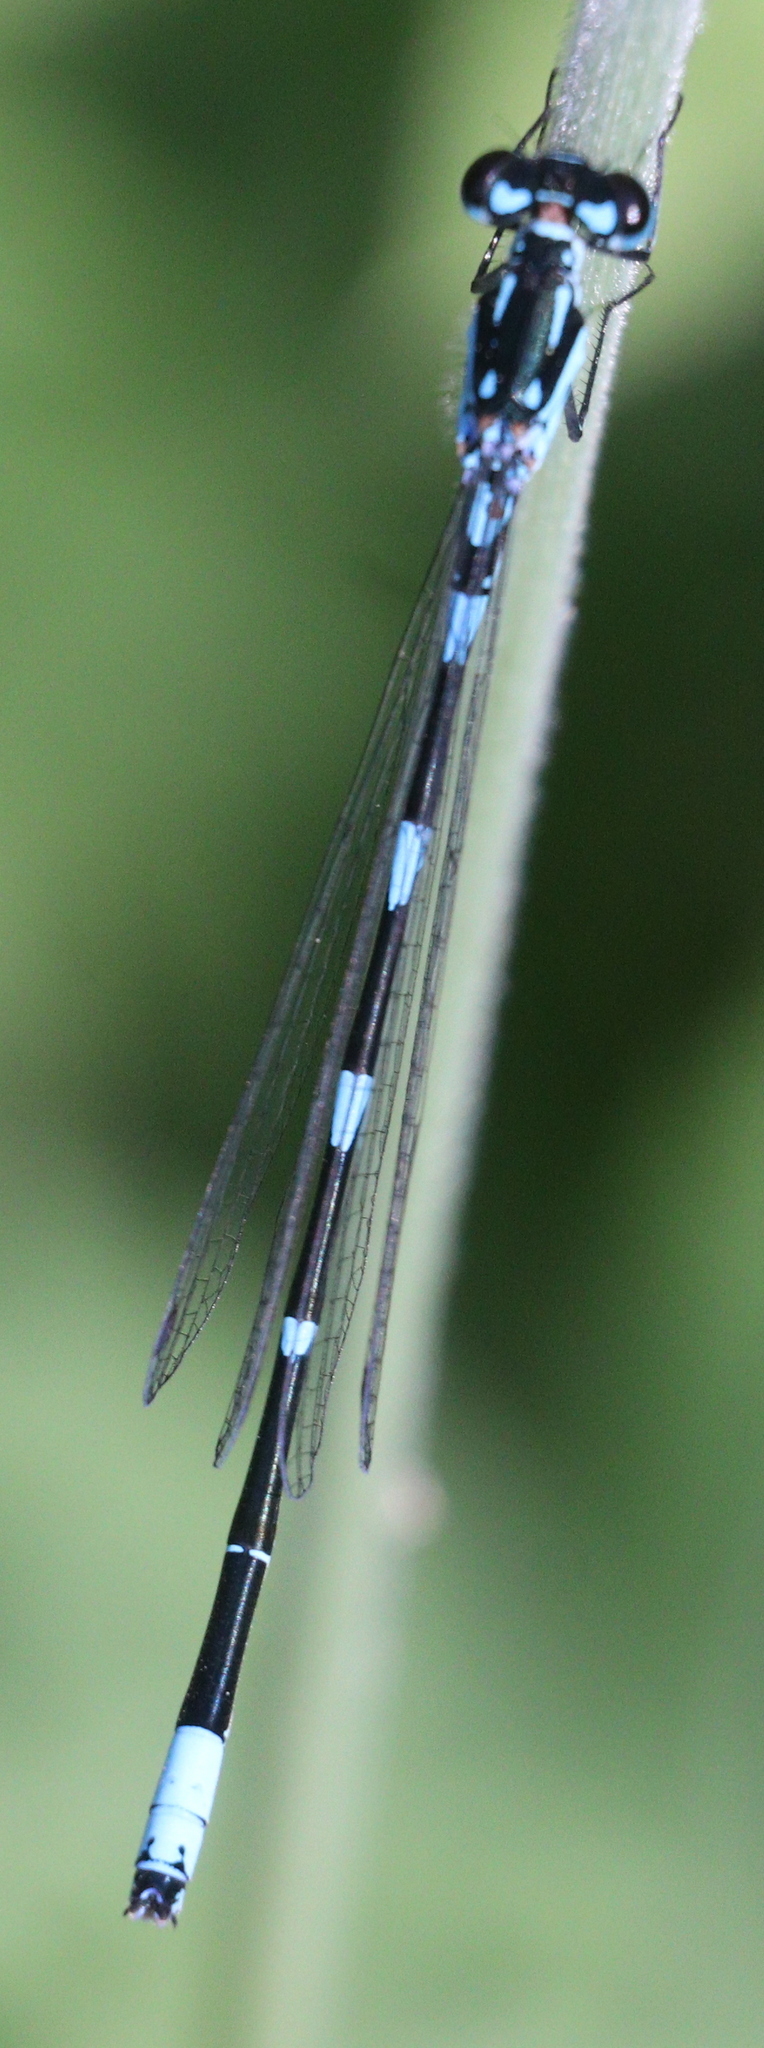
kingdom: Animalia
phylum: Arthropoda
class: Insecta
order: Odonata
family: Coenagrionidae
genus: Coenagrion
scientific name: Coenagrion pulchellum
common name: Variable bluet
